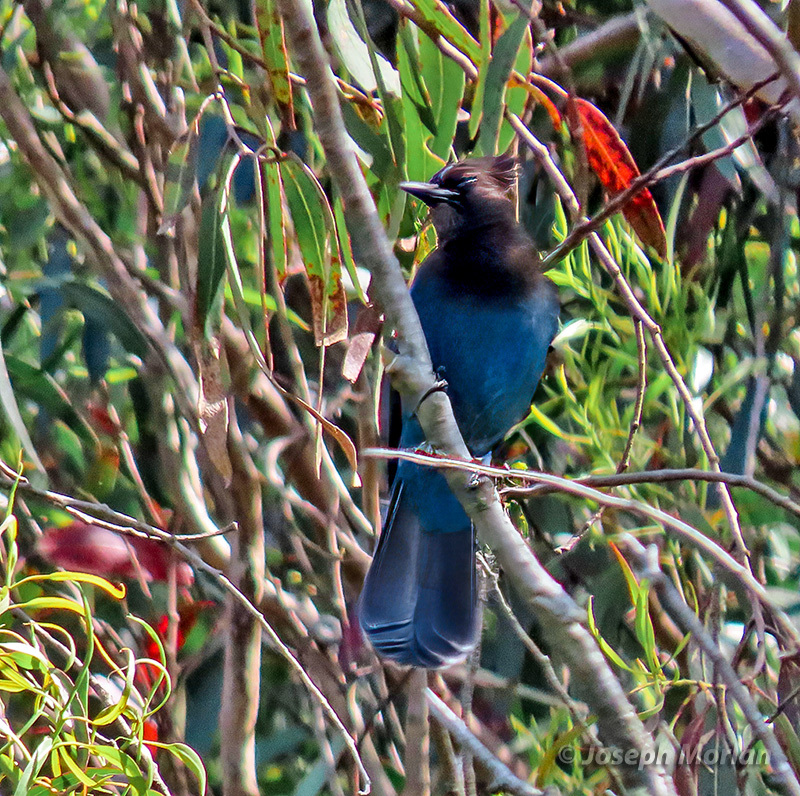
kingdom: Animalia
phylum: Chordata
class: Aves
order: Passeriformes
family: Corvidae
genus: Cyanocitta
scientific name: Cyanocitta stelleri
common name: Steller's jay
